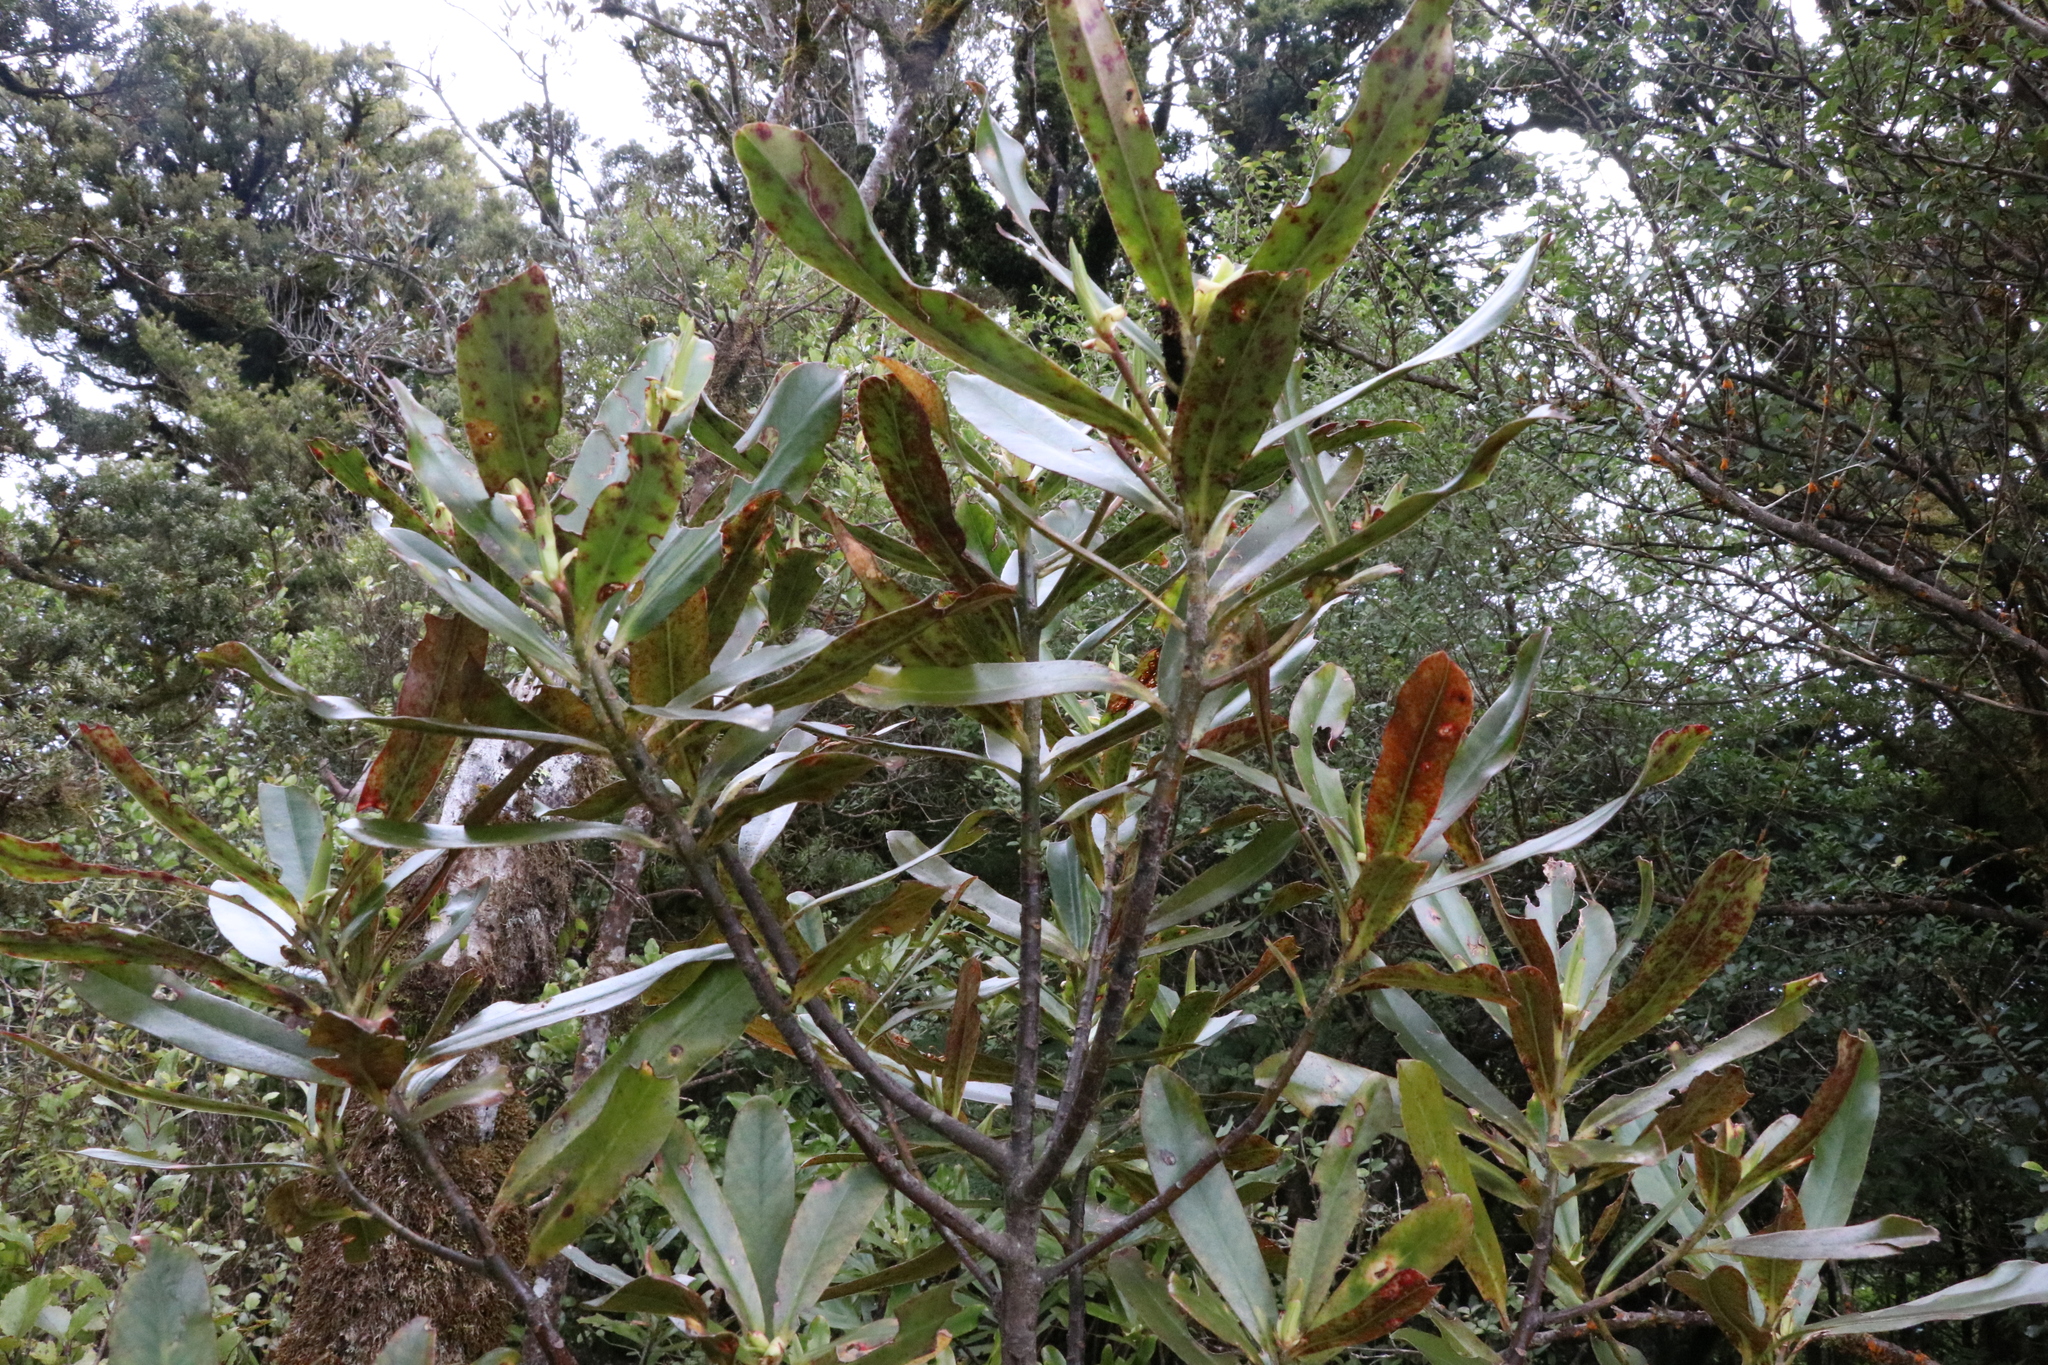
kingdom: Plantae
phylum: Tracheophyta
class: Magnoliopsida
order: Ericales
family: Primulaceae
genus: Myrsine
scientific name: Myrsine salicina
